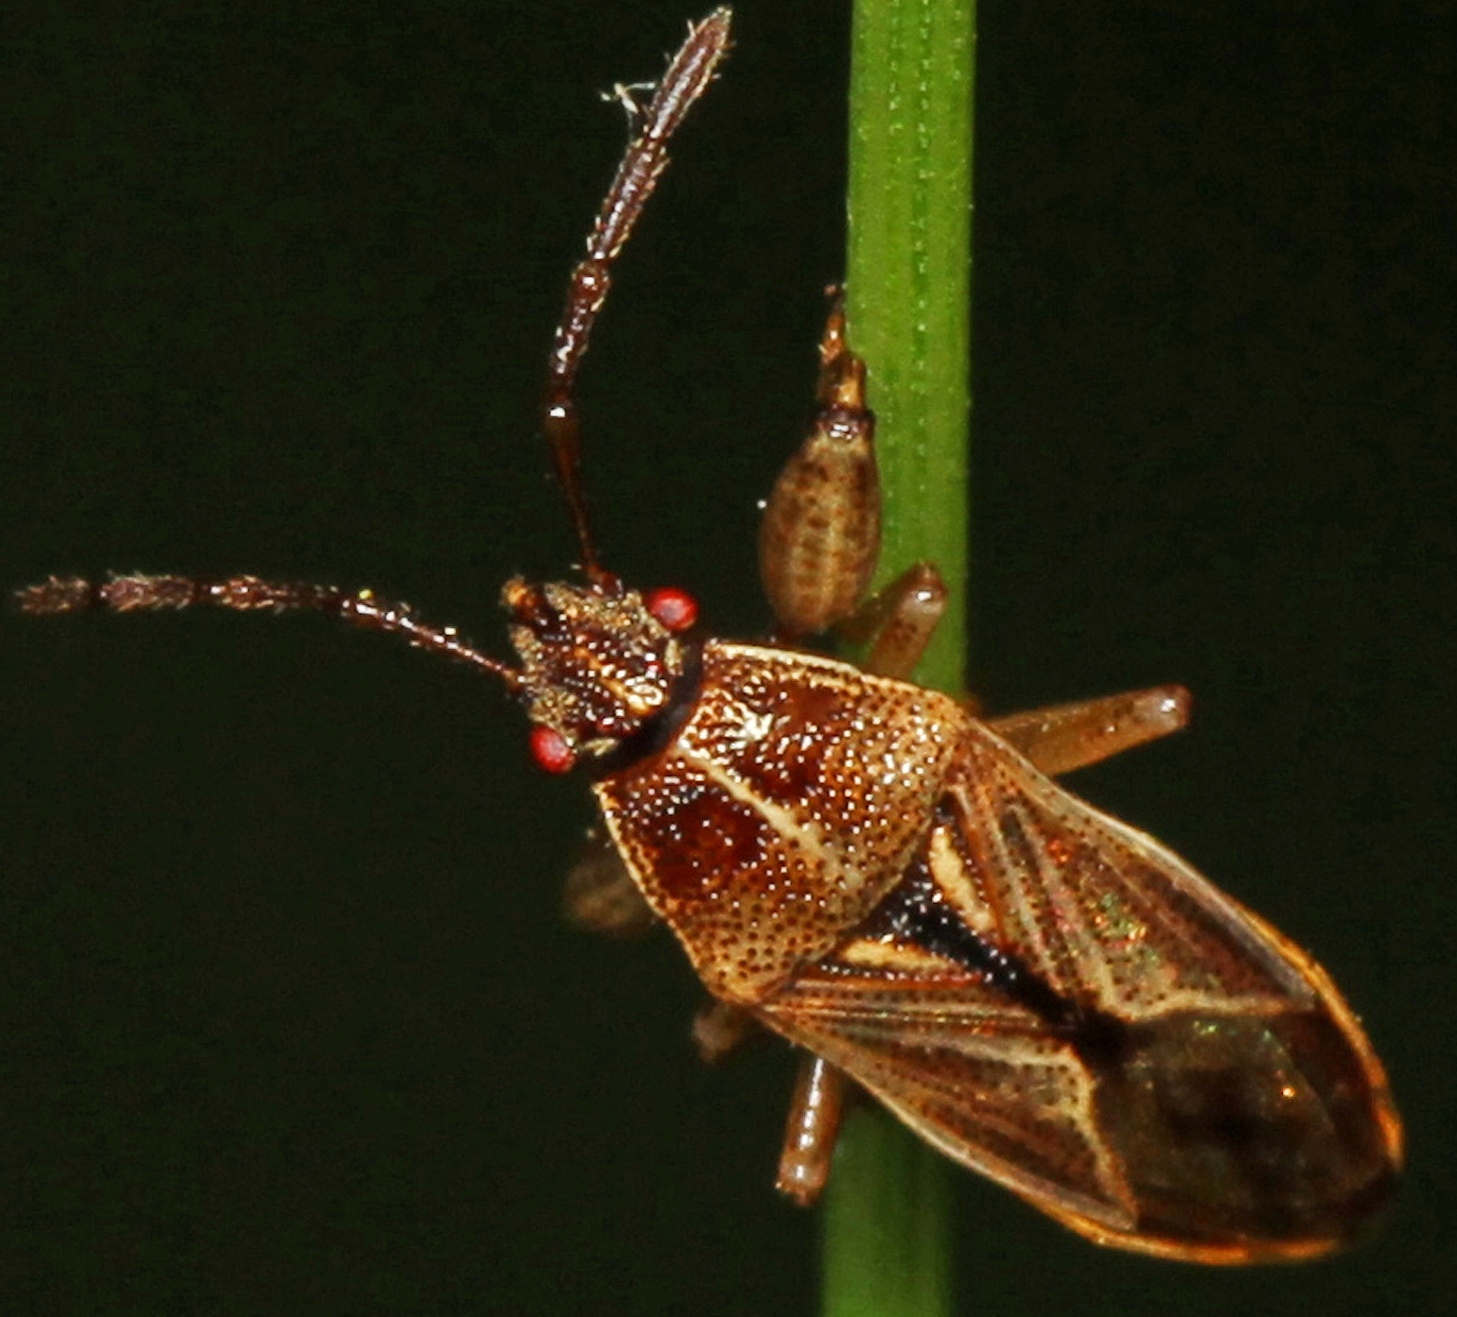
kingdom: Animalia
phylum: Arthropoda
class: Insecta
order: Hemiptera
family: Pachygronthidae
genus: Oedancala
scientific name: Oedancala dorsalis
